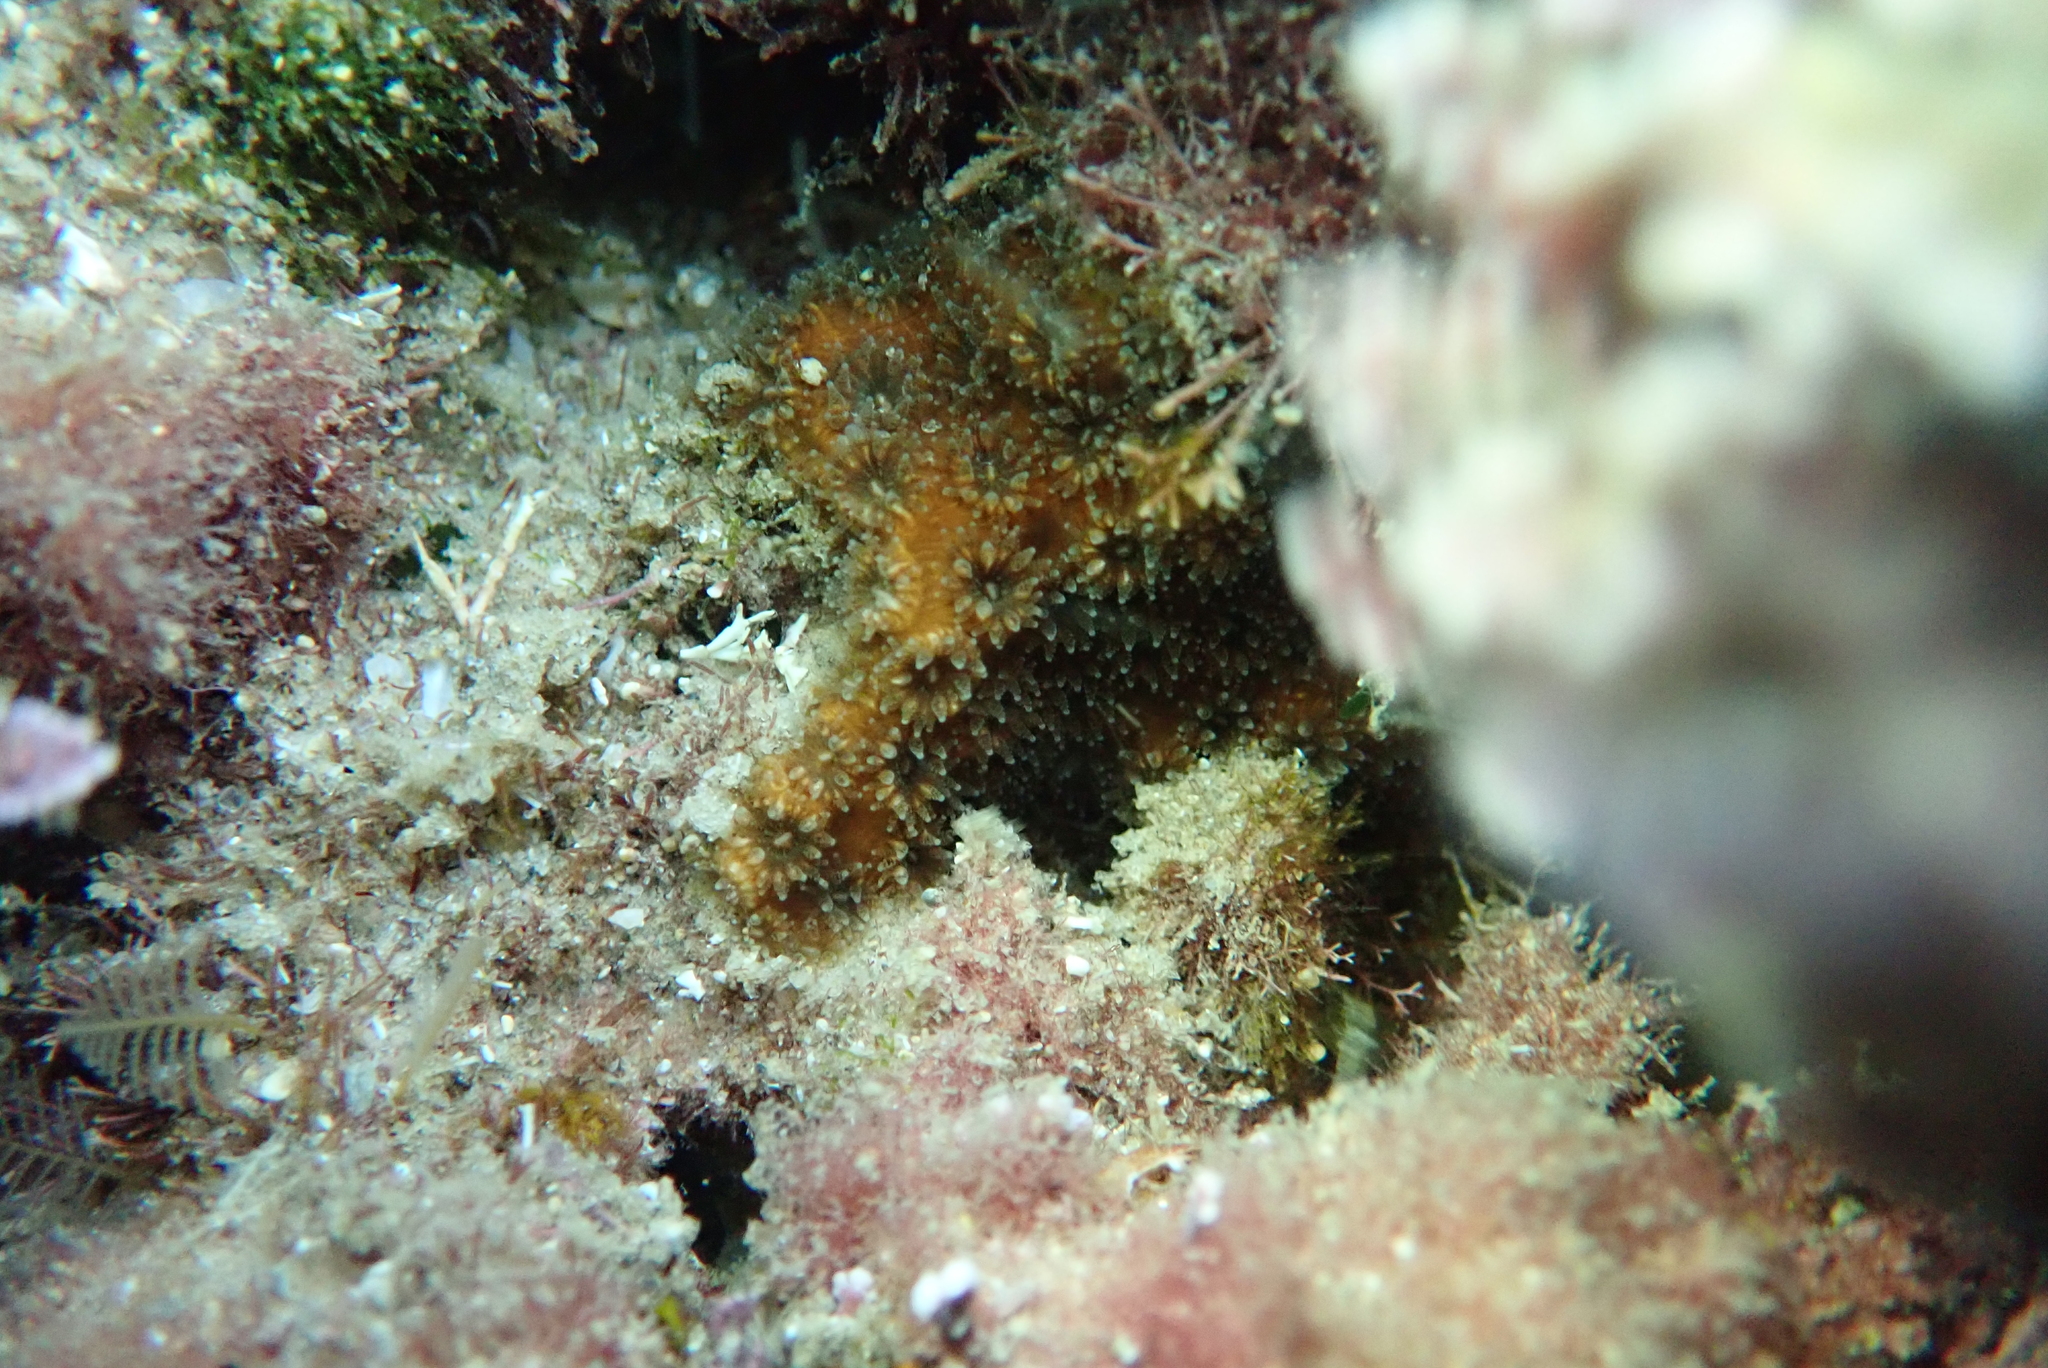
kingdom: Animalia
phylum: Cnidaria
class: Anthozoa
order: Scleractinia
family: Oculinidae
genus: Oculina
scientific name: Oculina patagonica
